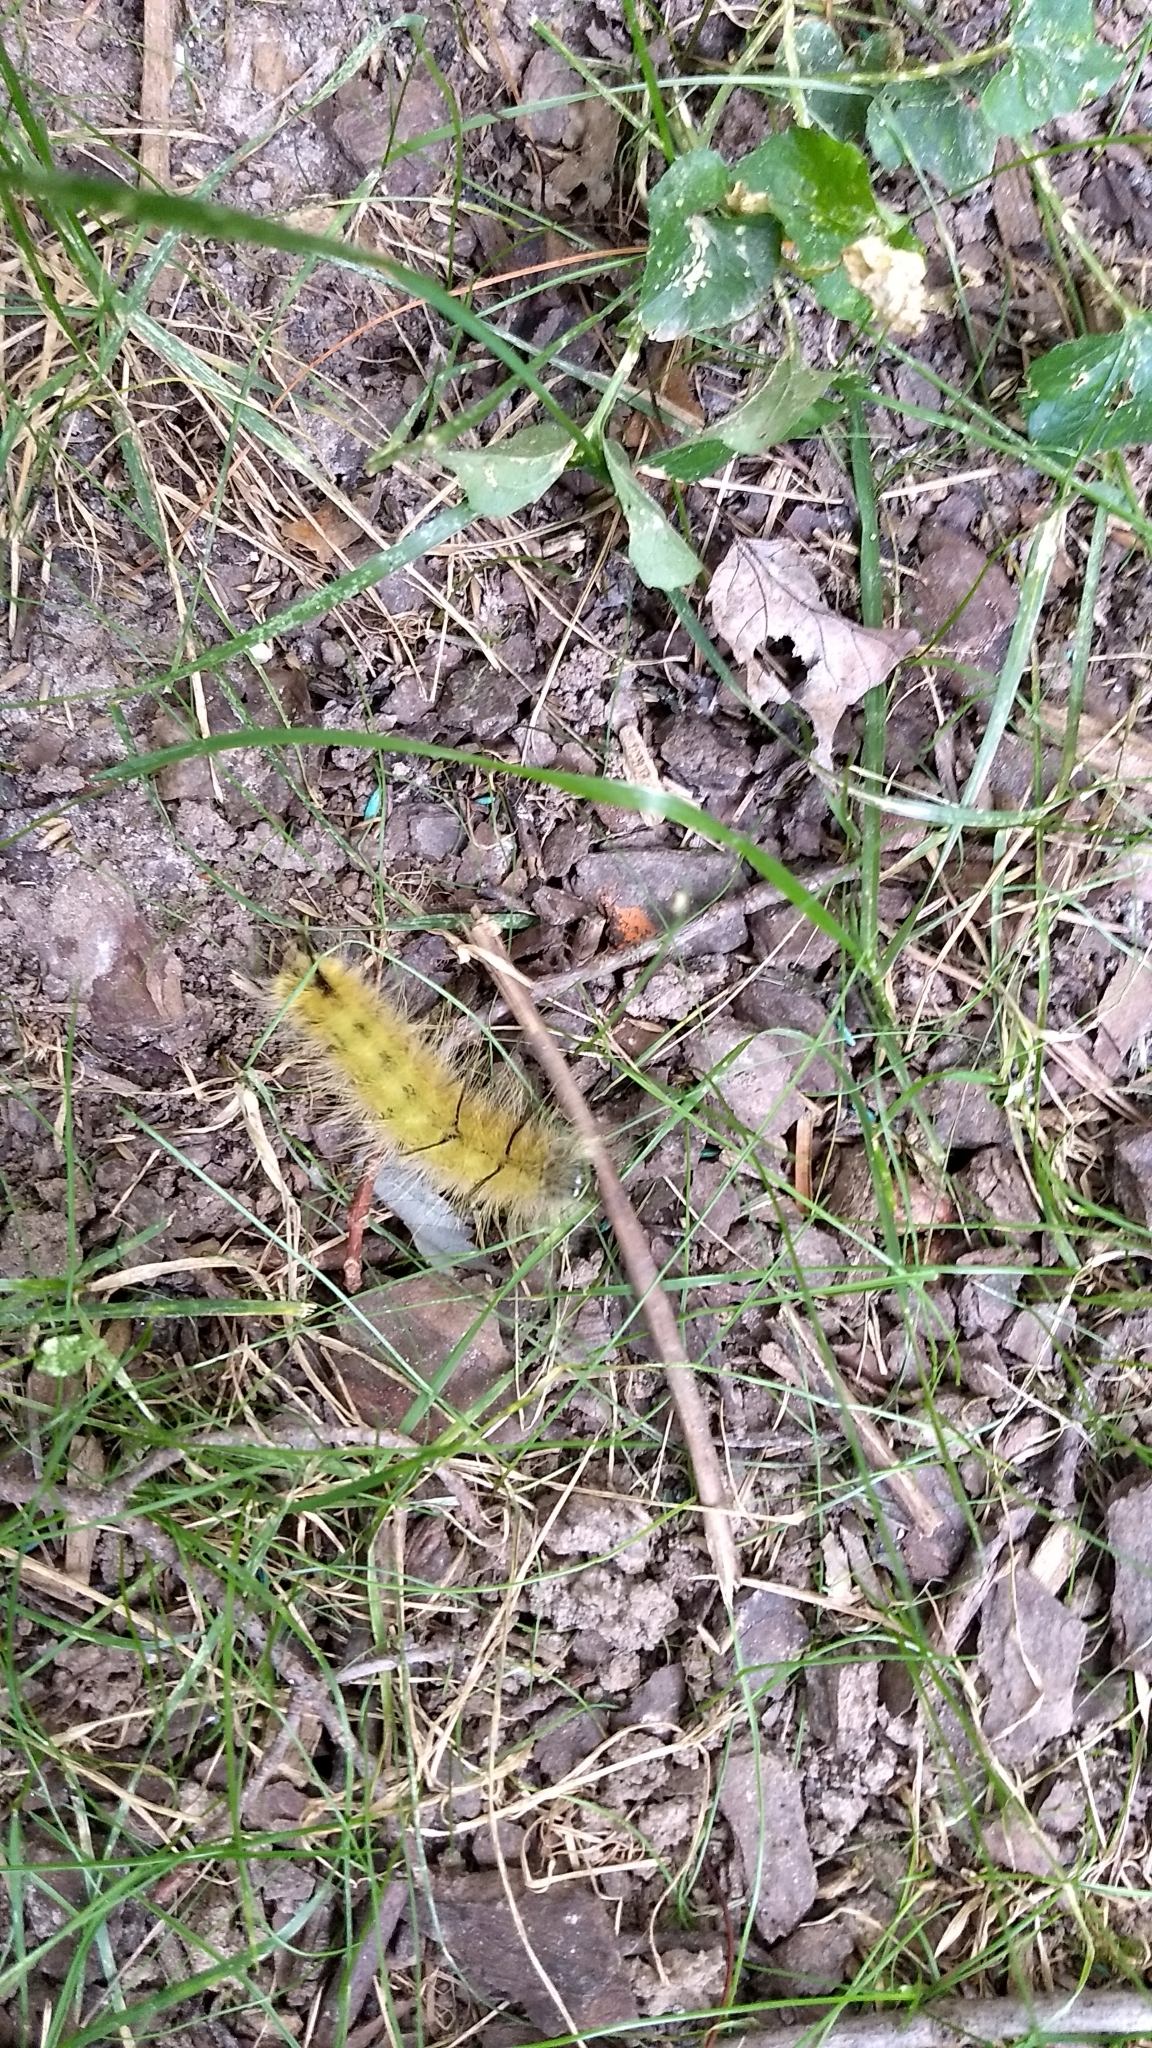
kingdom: Animalia
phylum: Arthropoda
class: Insecta
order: Lepidoptera
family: Noctuidae
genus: Acronicta
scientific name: Acronicta americana
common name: American dagger
